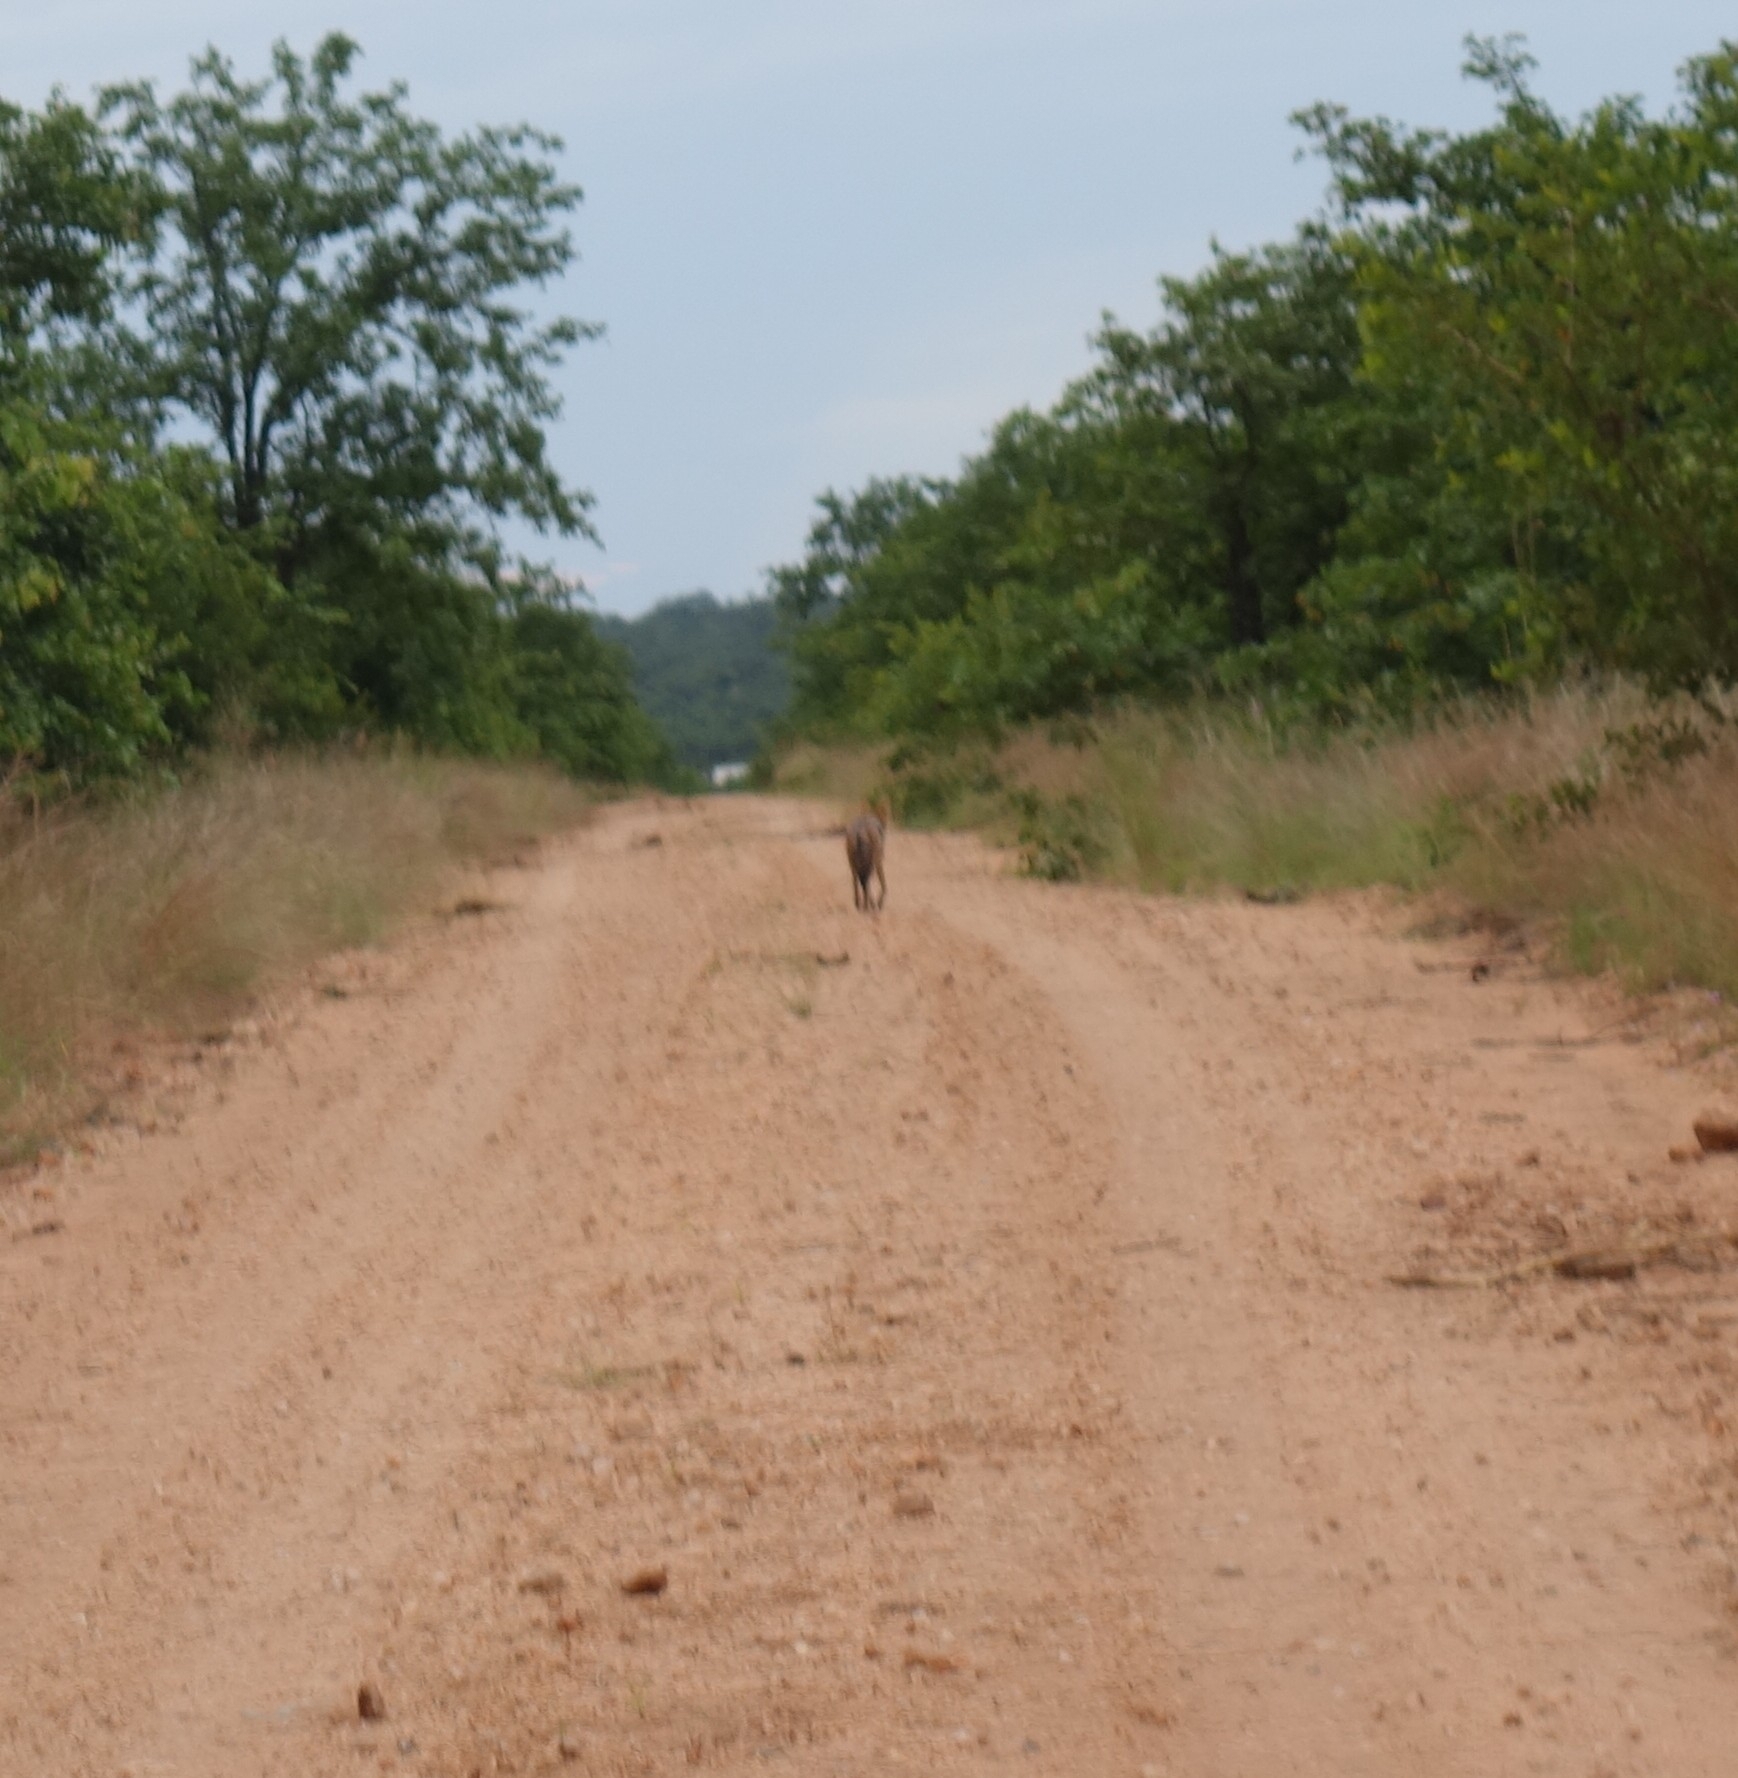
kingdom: Animalia
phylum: Chordata
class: Mammalia
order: Carnivora
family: Canidae
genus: Lupulella
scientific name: Lupulella
